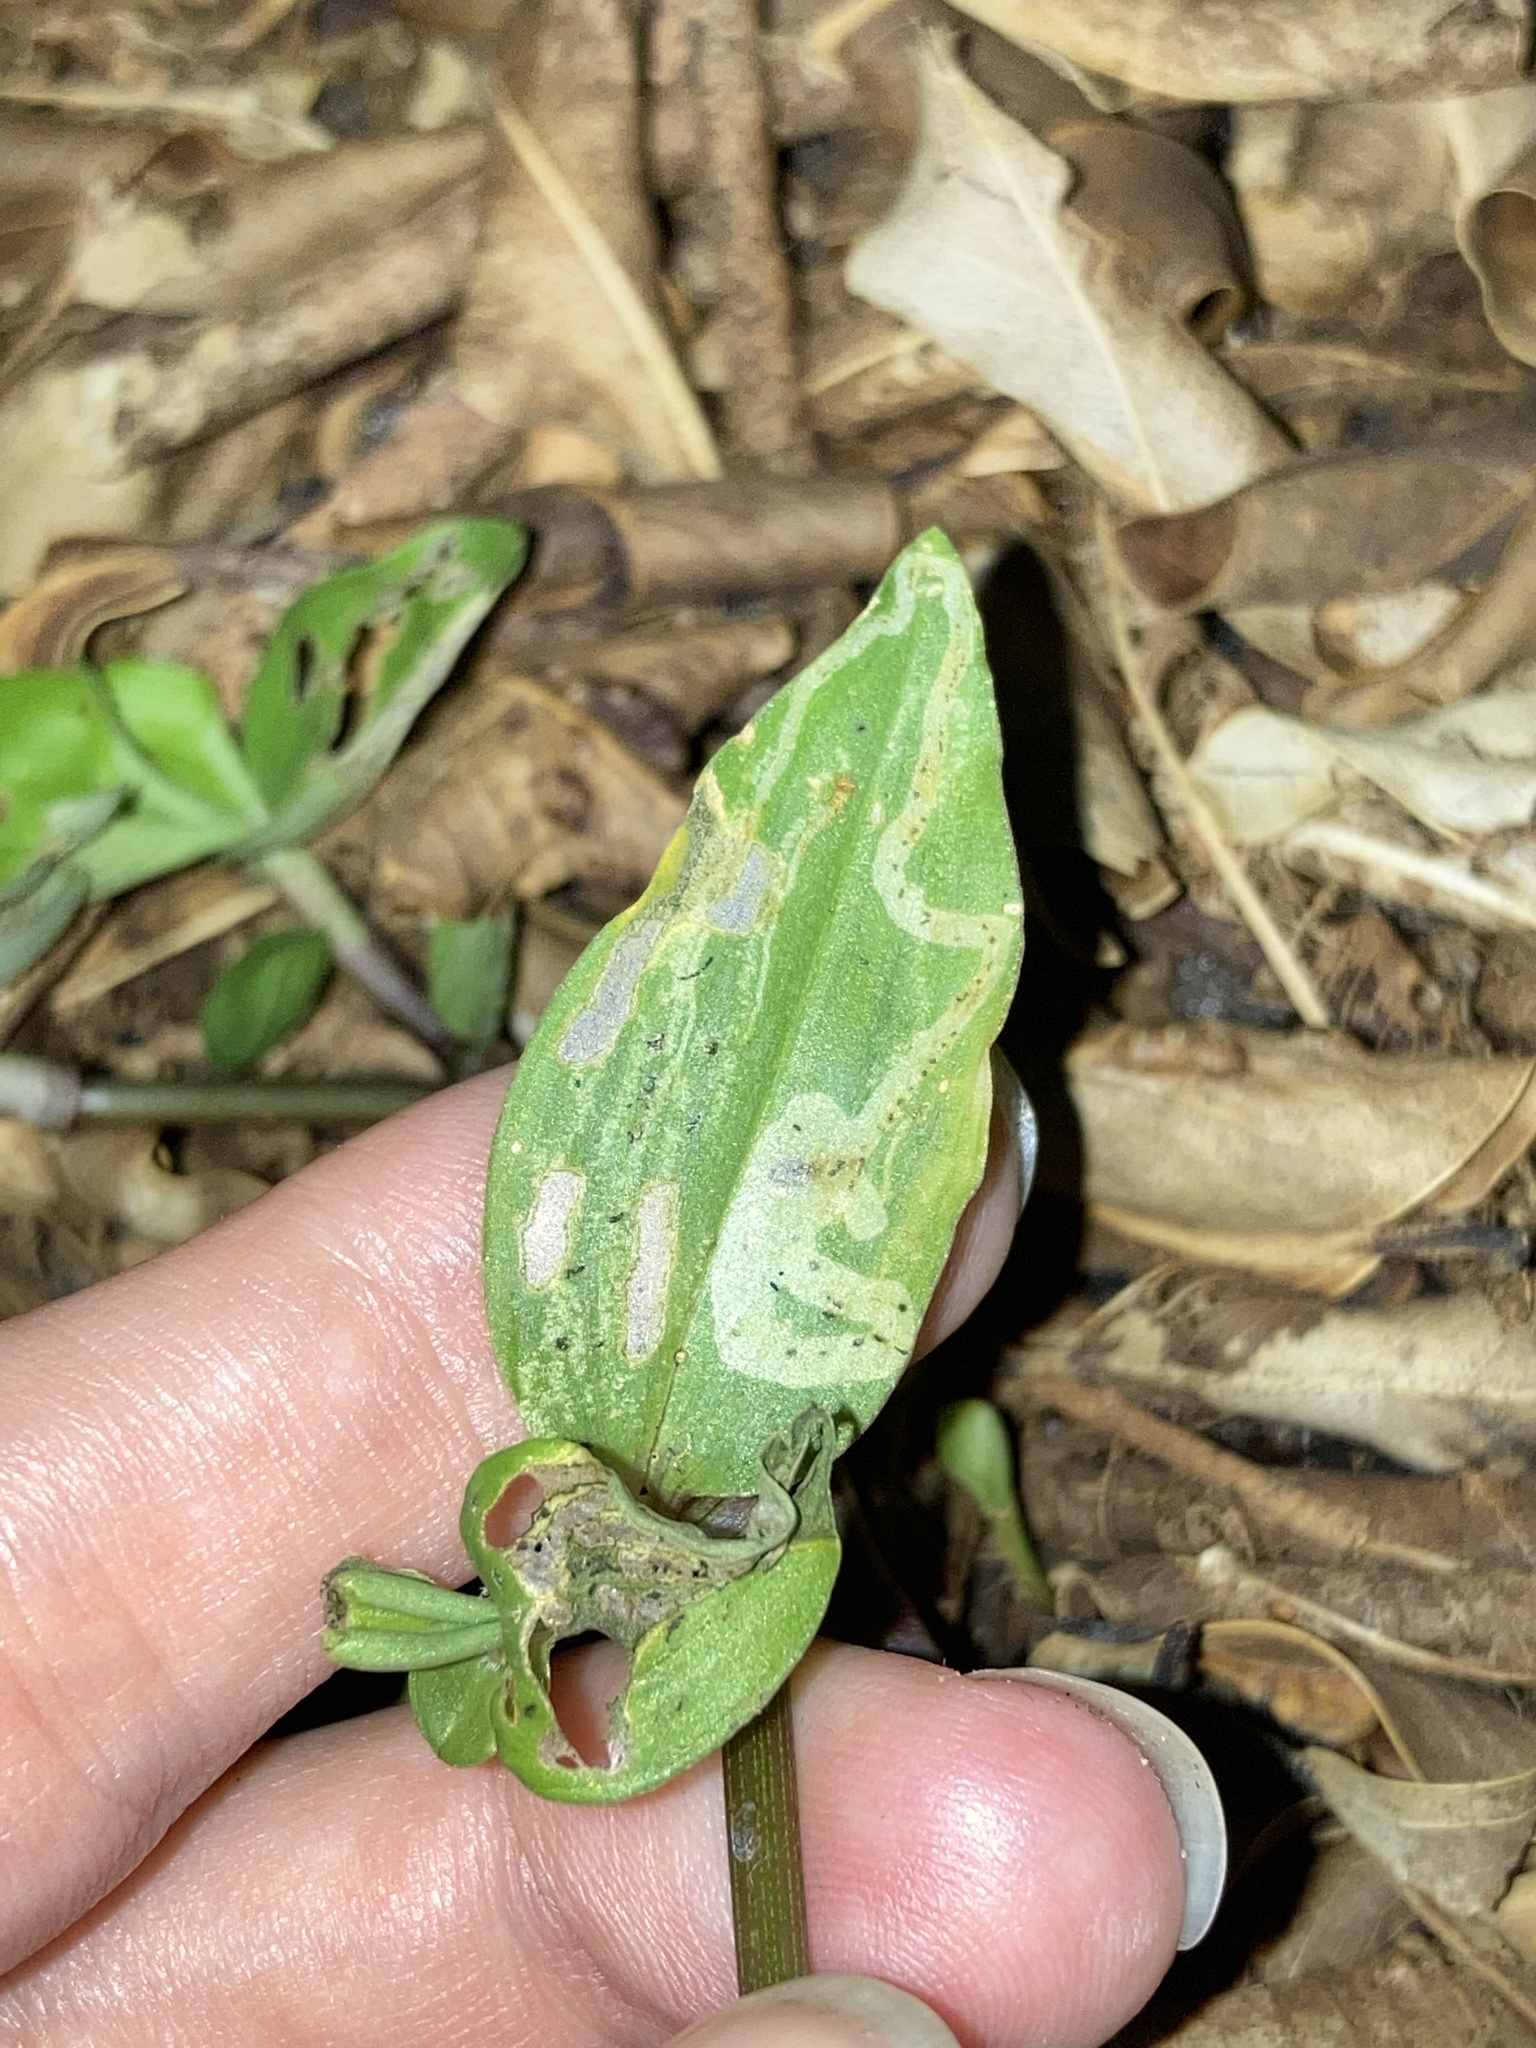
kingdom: Animalia
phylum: Arthropoda
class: Insecta
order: Diptera
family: Agromyzidae
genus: Liriomyza
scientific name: Liriomyza commelinae
